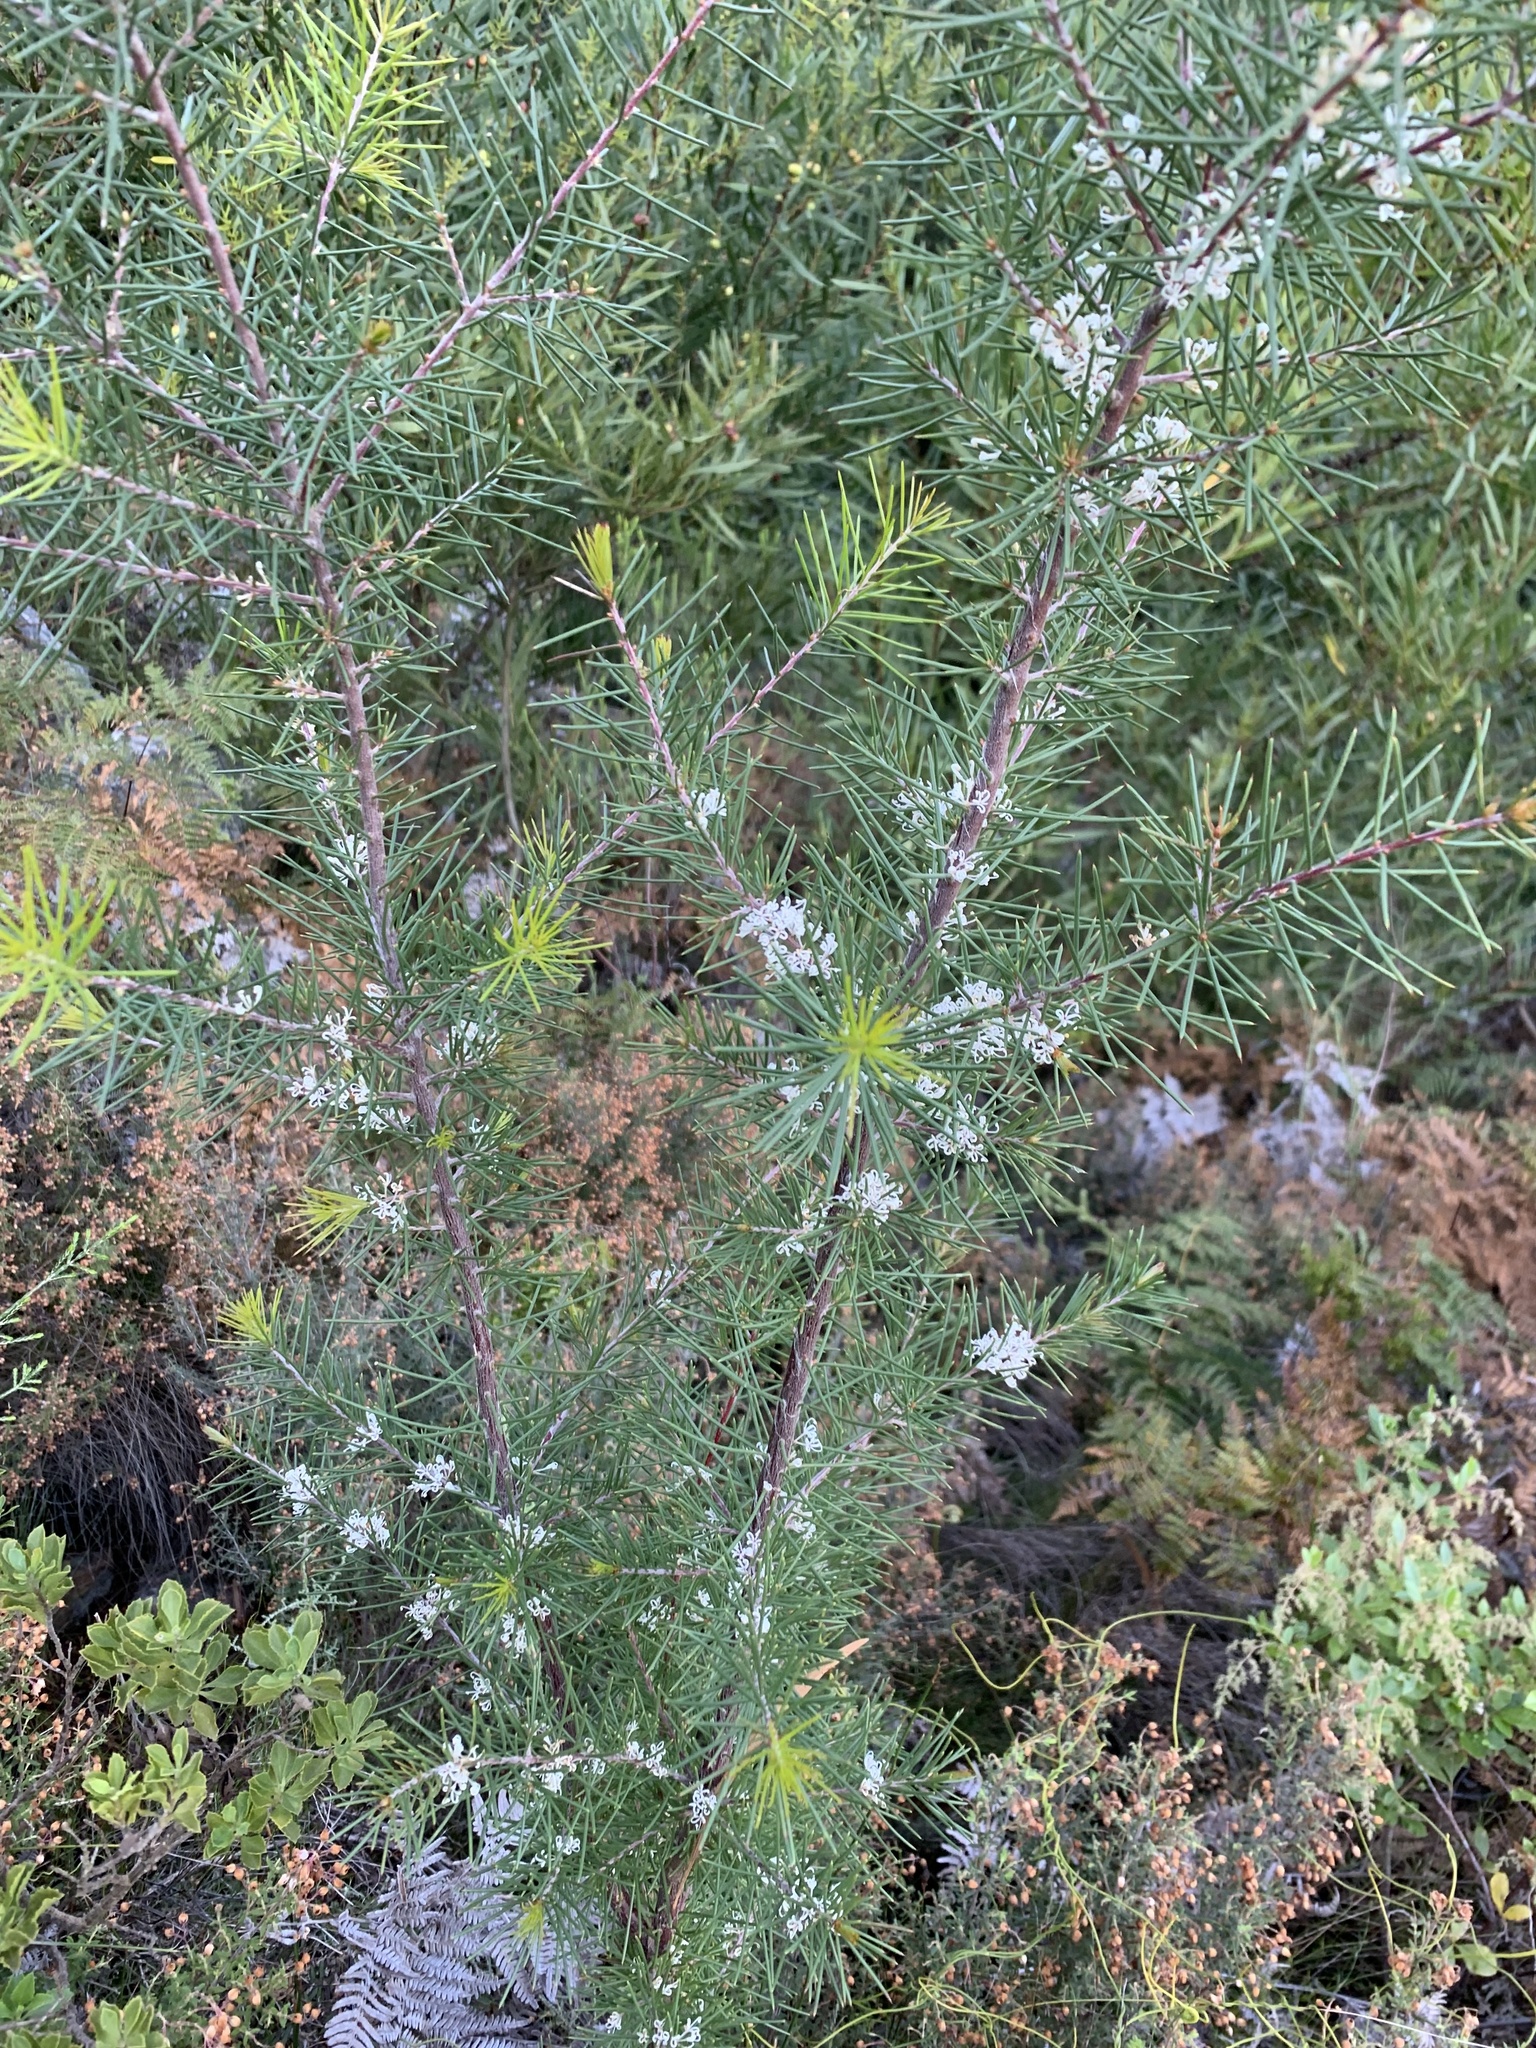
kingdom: Plantae
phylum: Tracheophyta
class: Magnoliopsida
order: Proteales
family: Proteaceae
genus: Hakea
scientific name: Hakea sericea
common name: Needle bush
